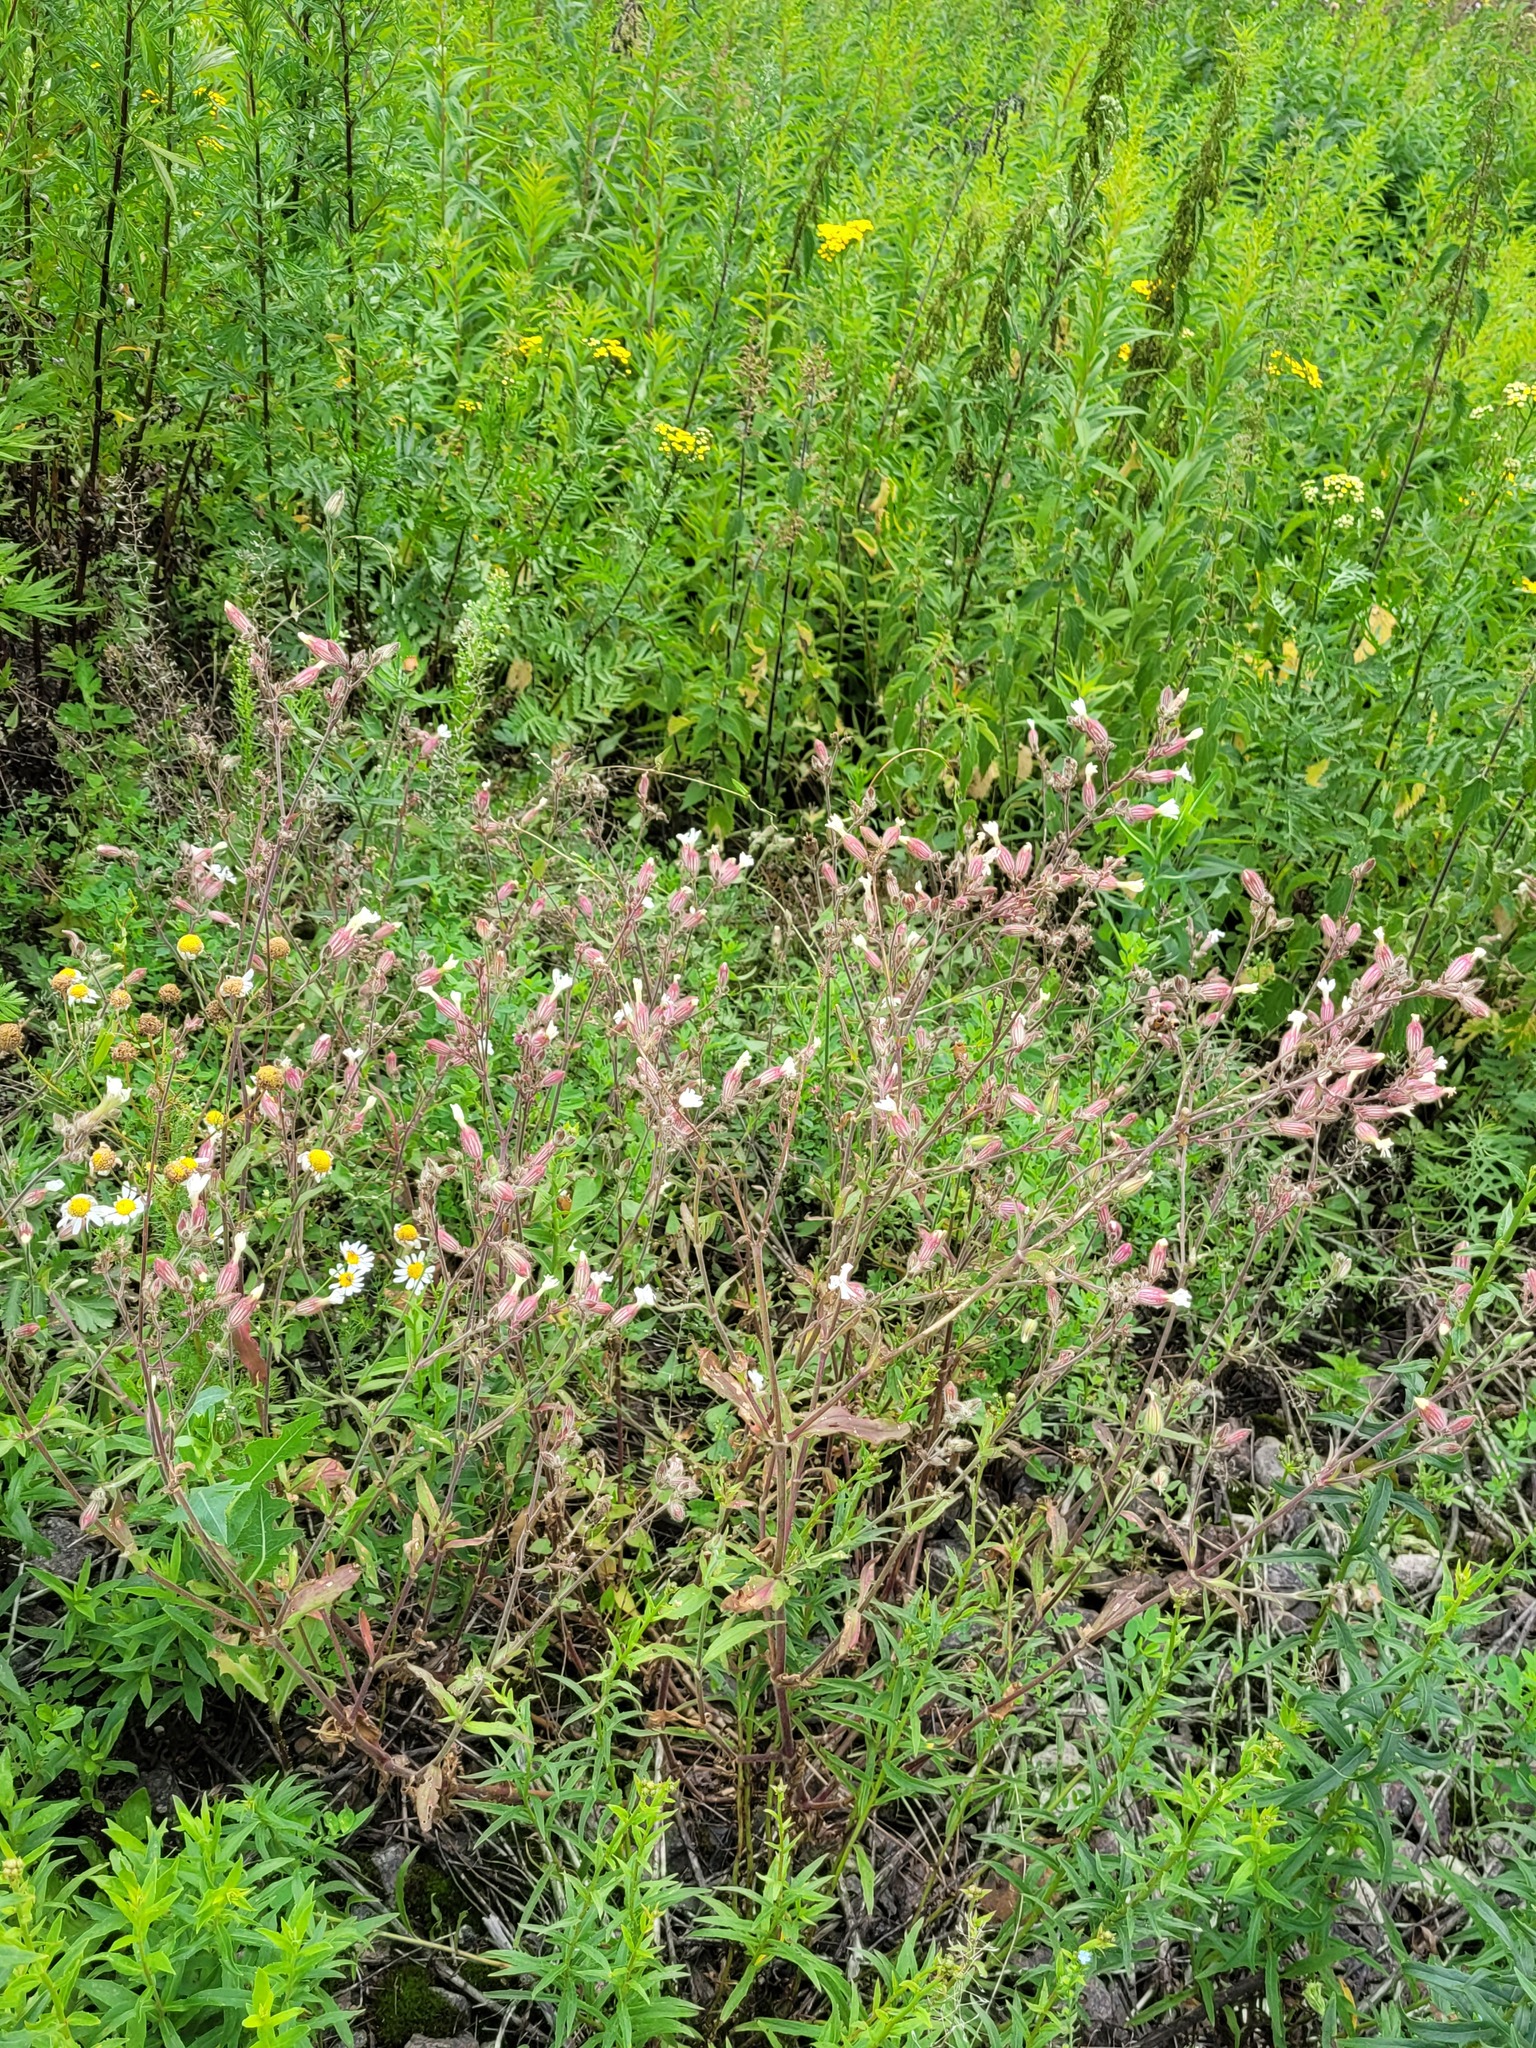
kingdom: Plantae
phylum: Tracheophyta
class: Magnoliopsida
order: Caryophyllales
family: Caryophyllaceae
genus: Silene
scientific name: Silene latifolia
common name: White campion
